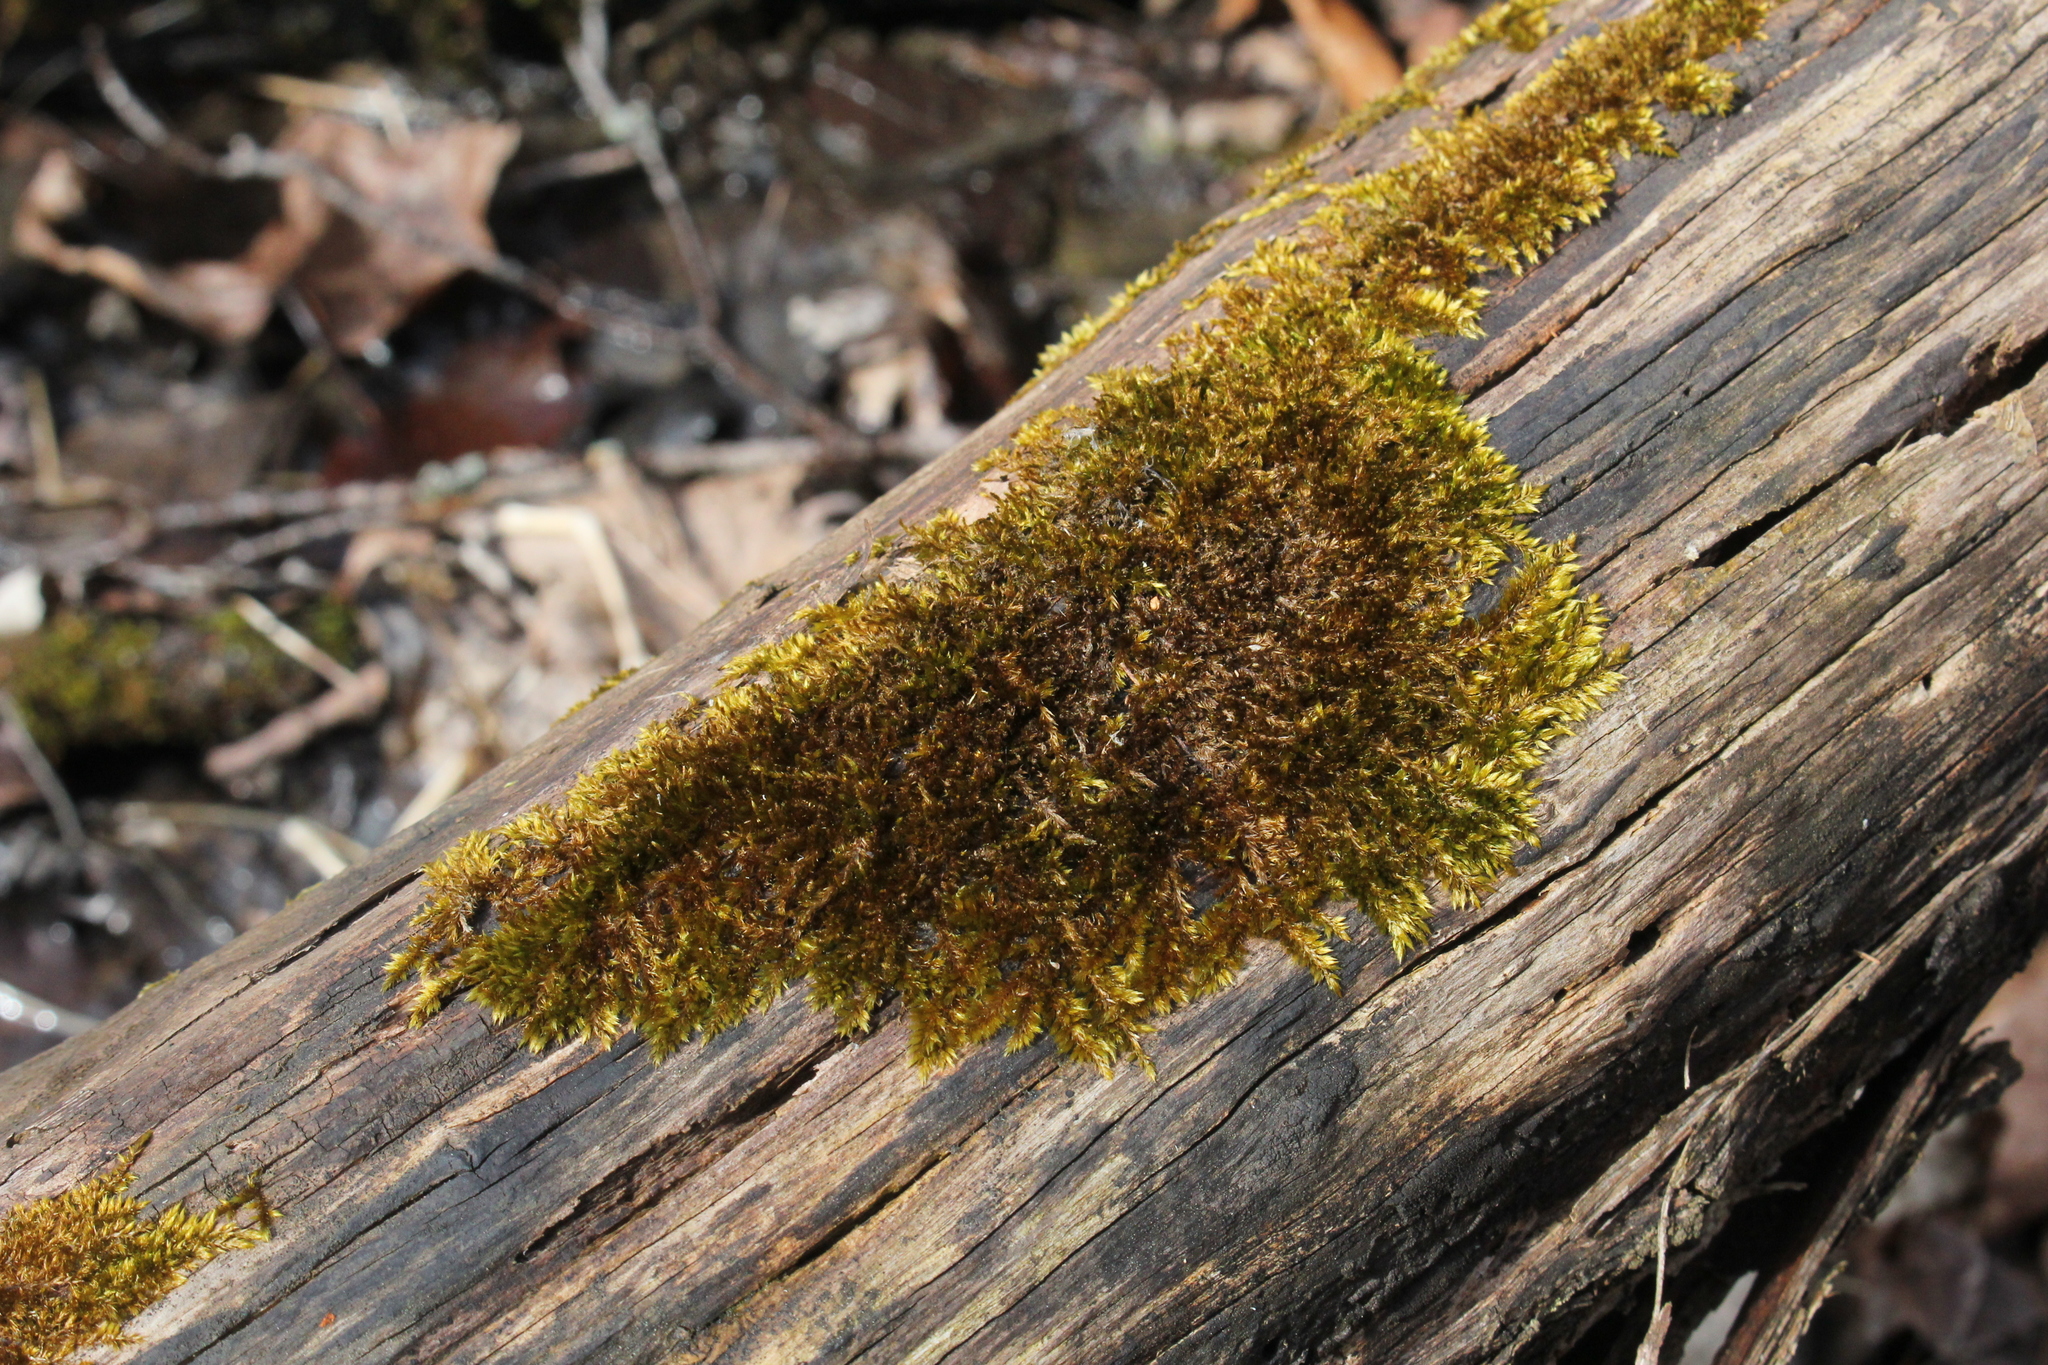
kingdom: Plantae
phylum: Bryophyta
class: Bryopsida
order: Hypnales
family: Pylaisiadelphaceae
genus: Platygyrium
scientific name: Platygyrium repens
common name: Flat-brocade moss
